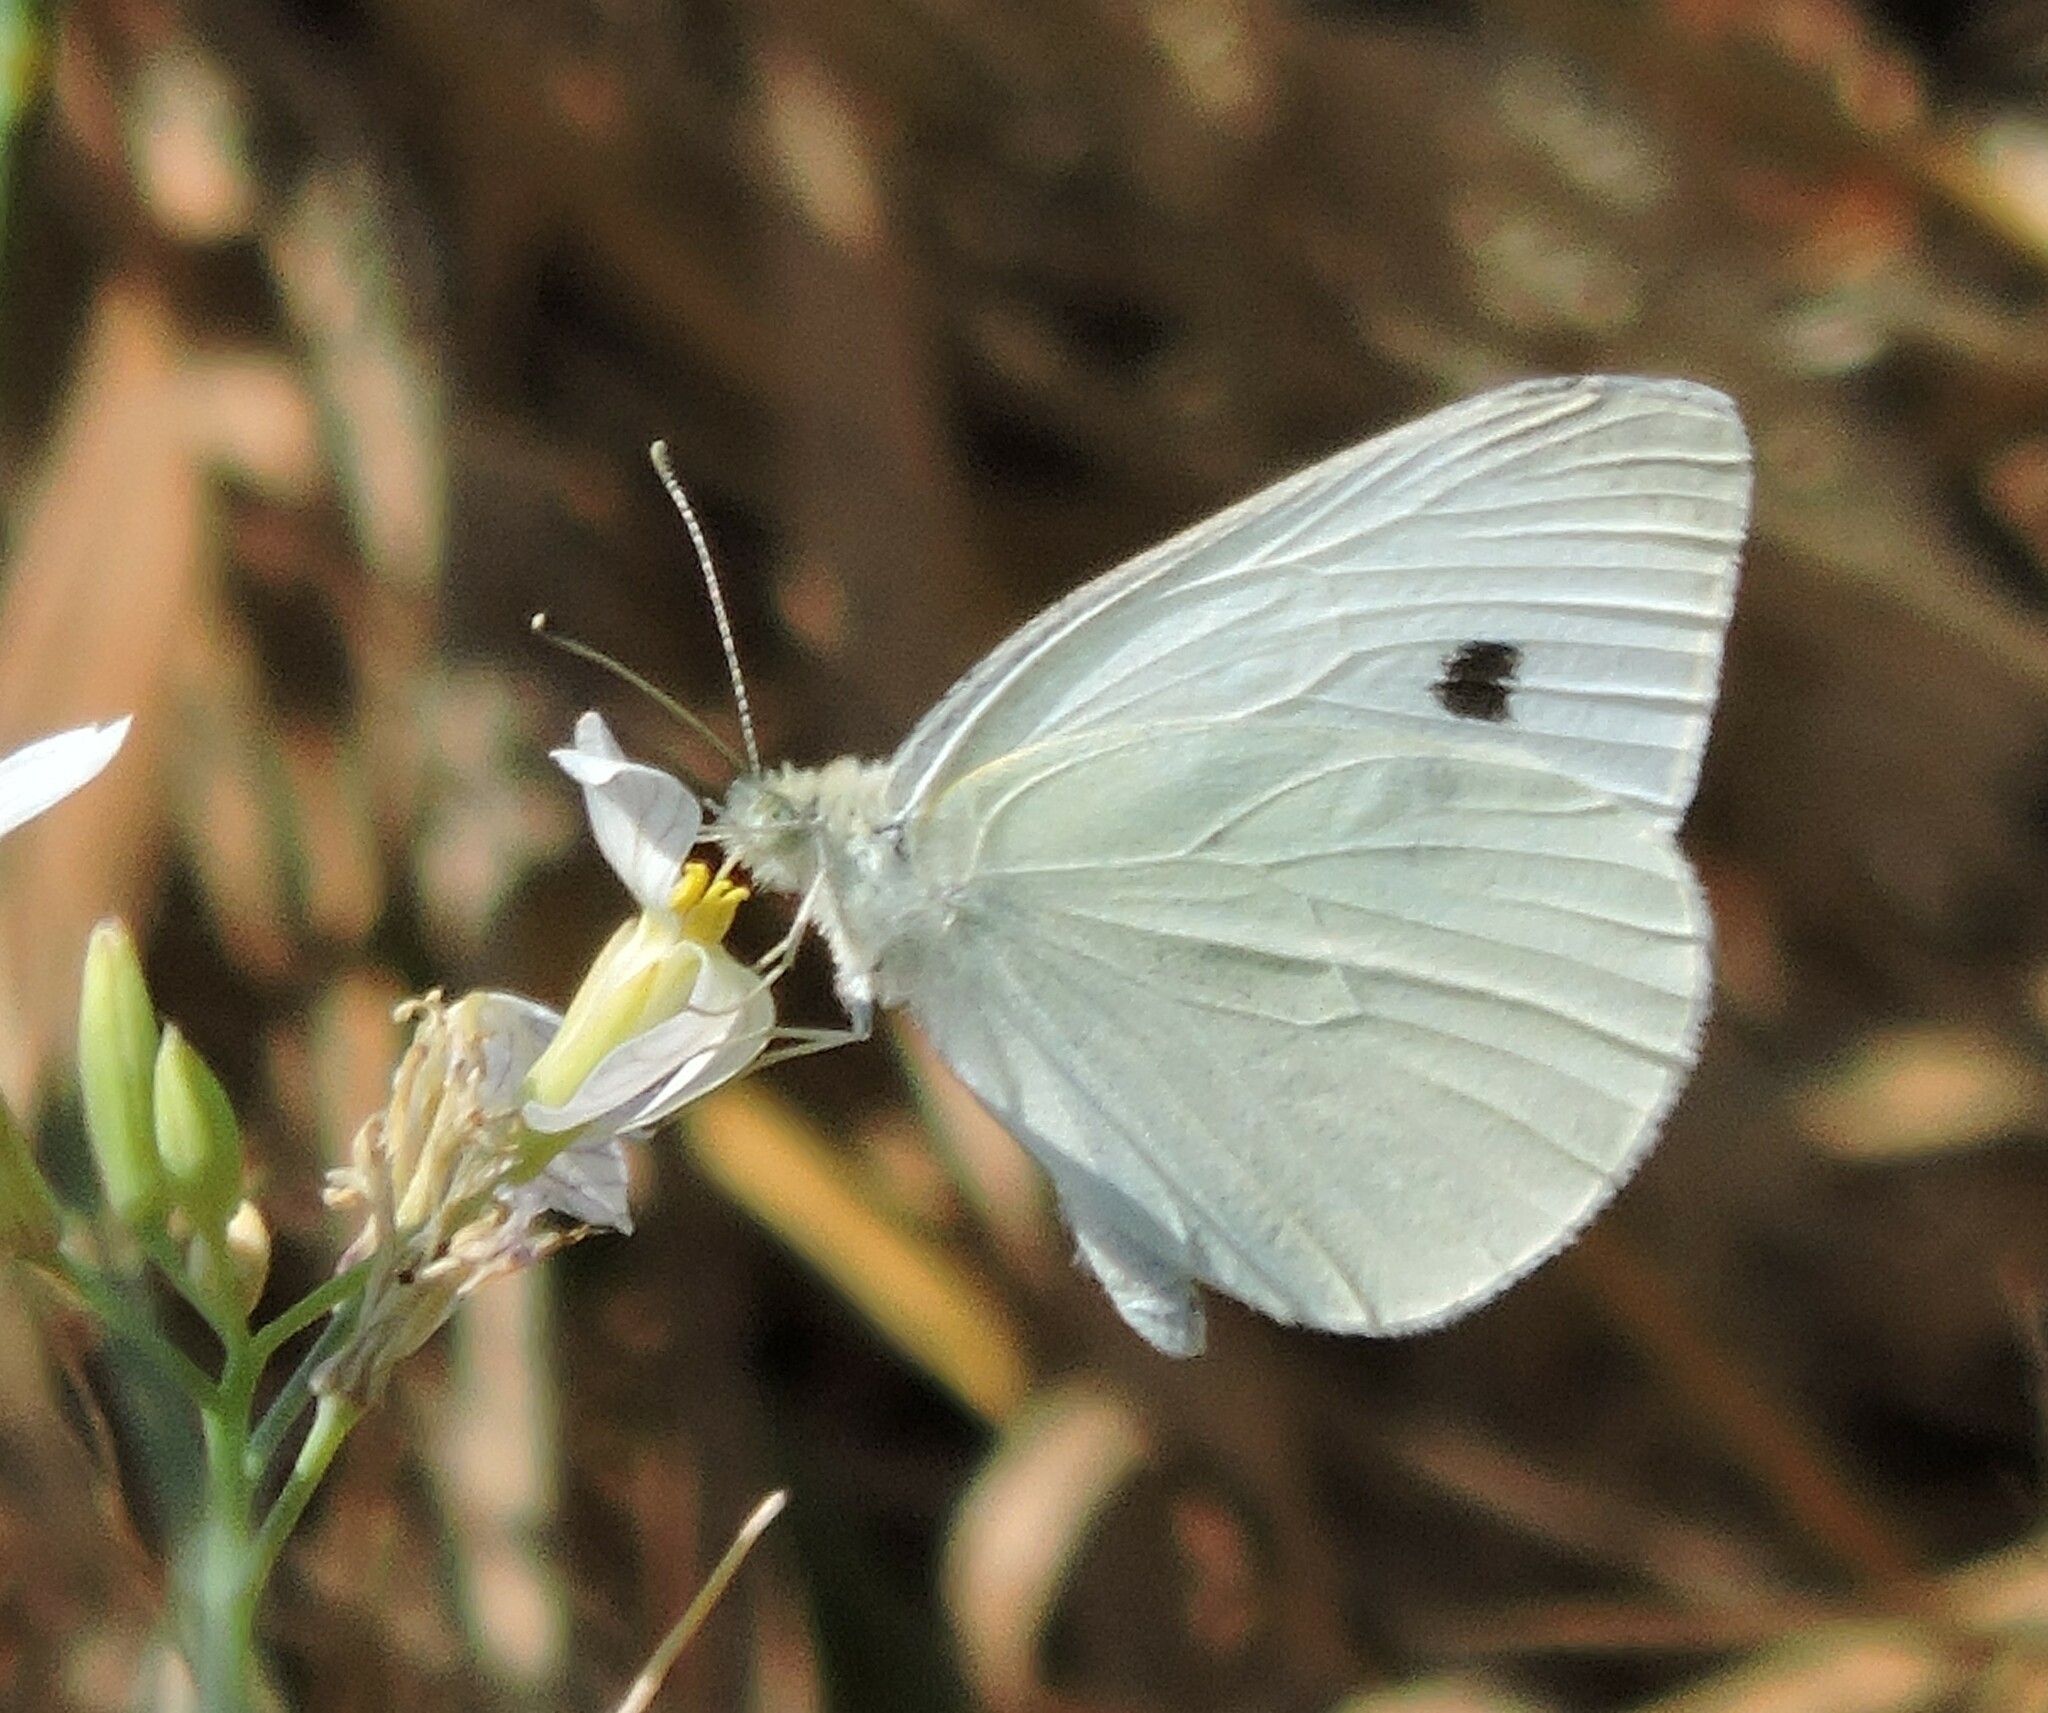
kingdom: Animalia
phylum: Arthropoda
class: Insecta
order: Lepidoptera
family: Pieridae
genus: Pieris
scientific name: Pieris rapae
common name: Small white
